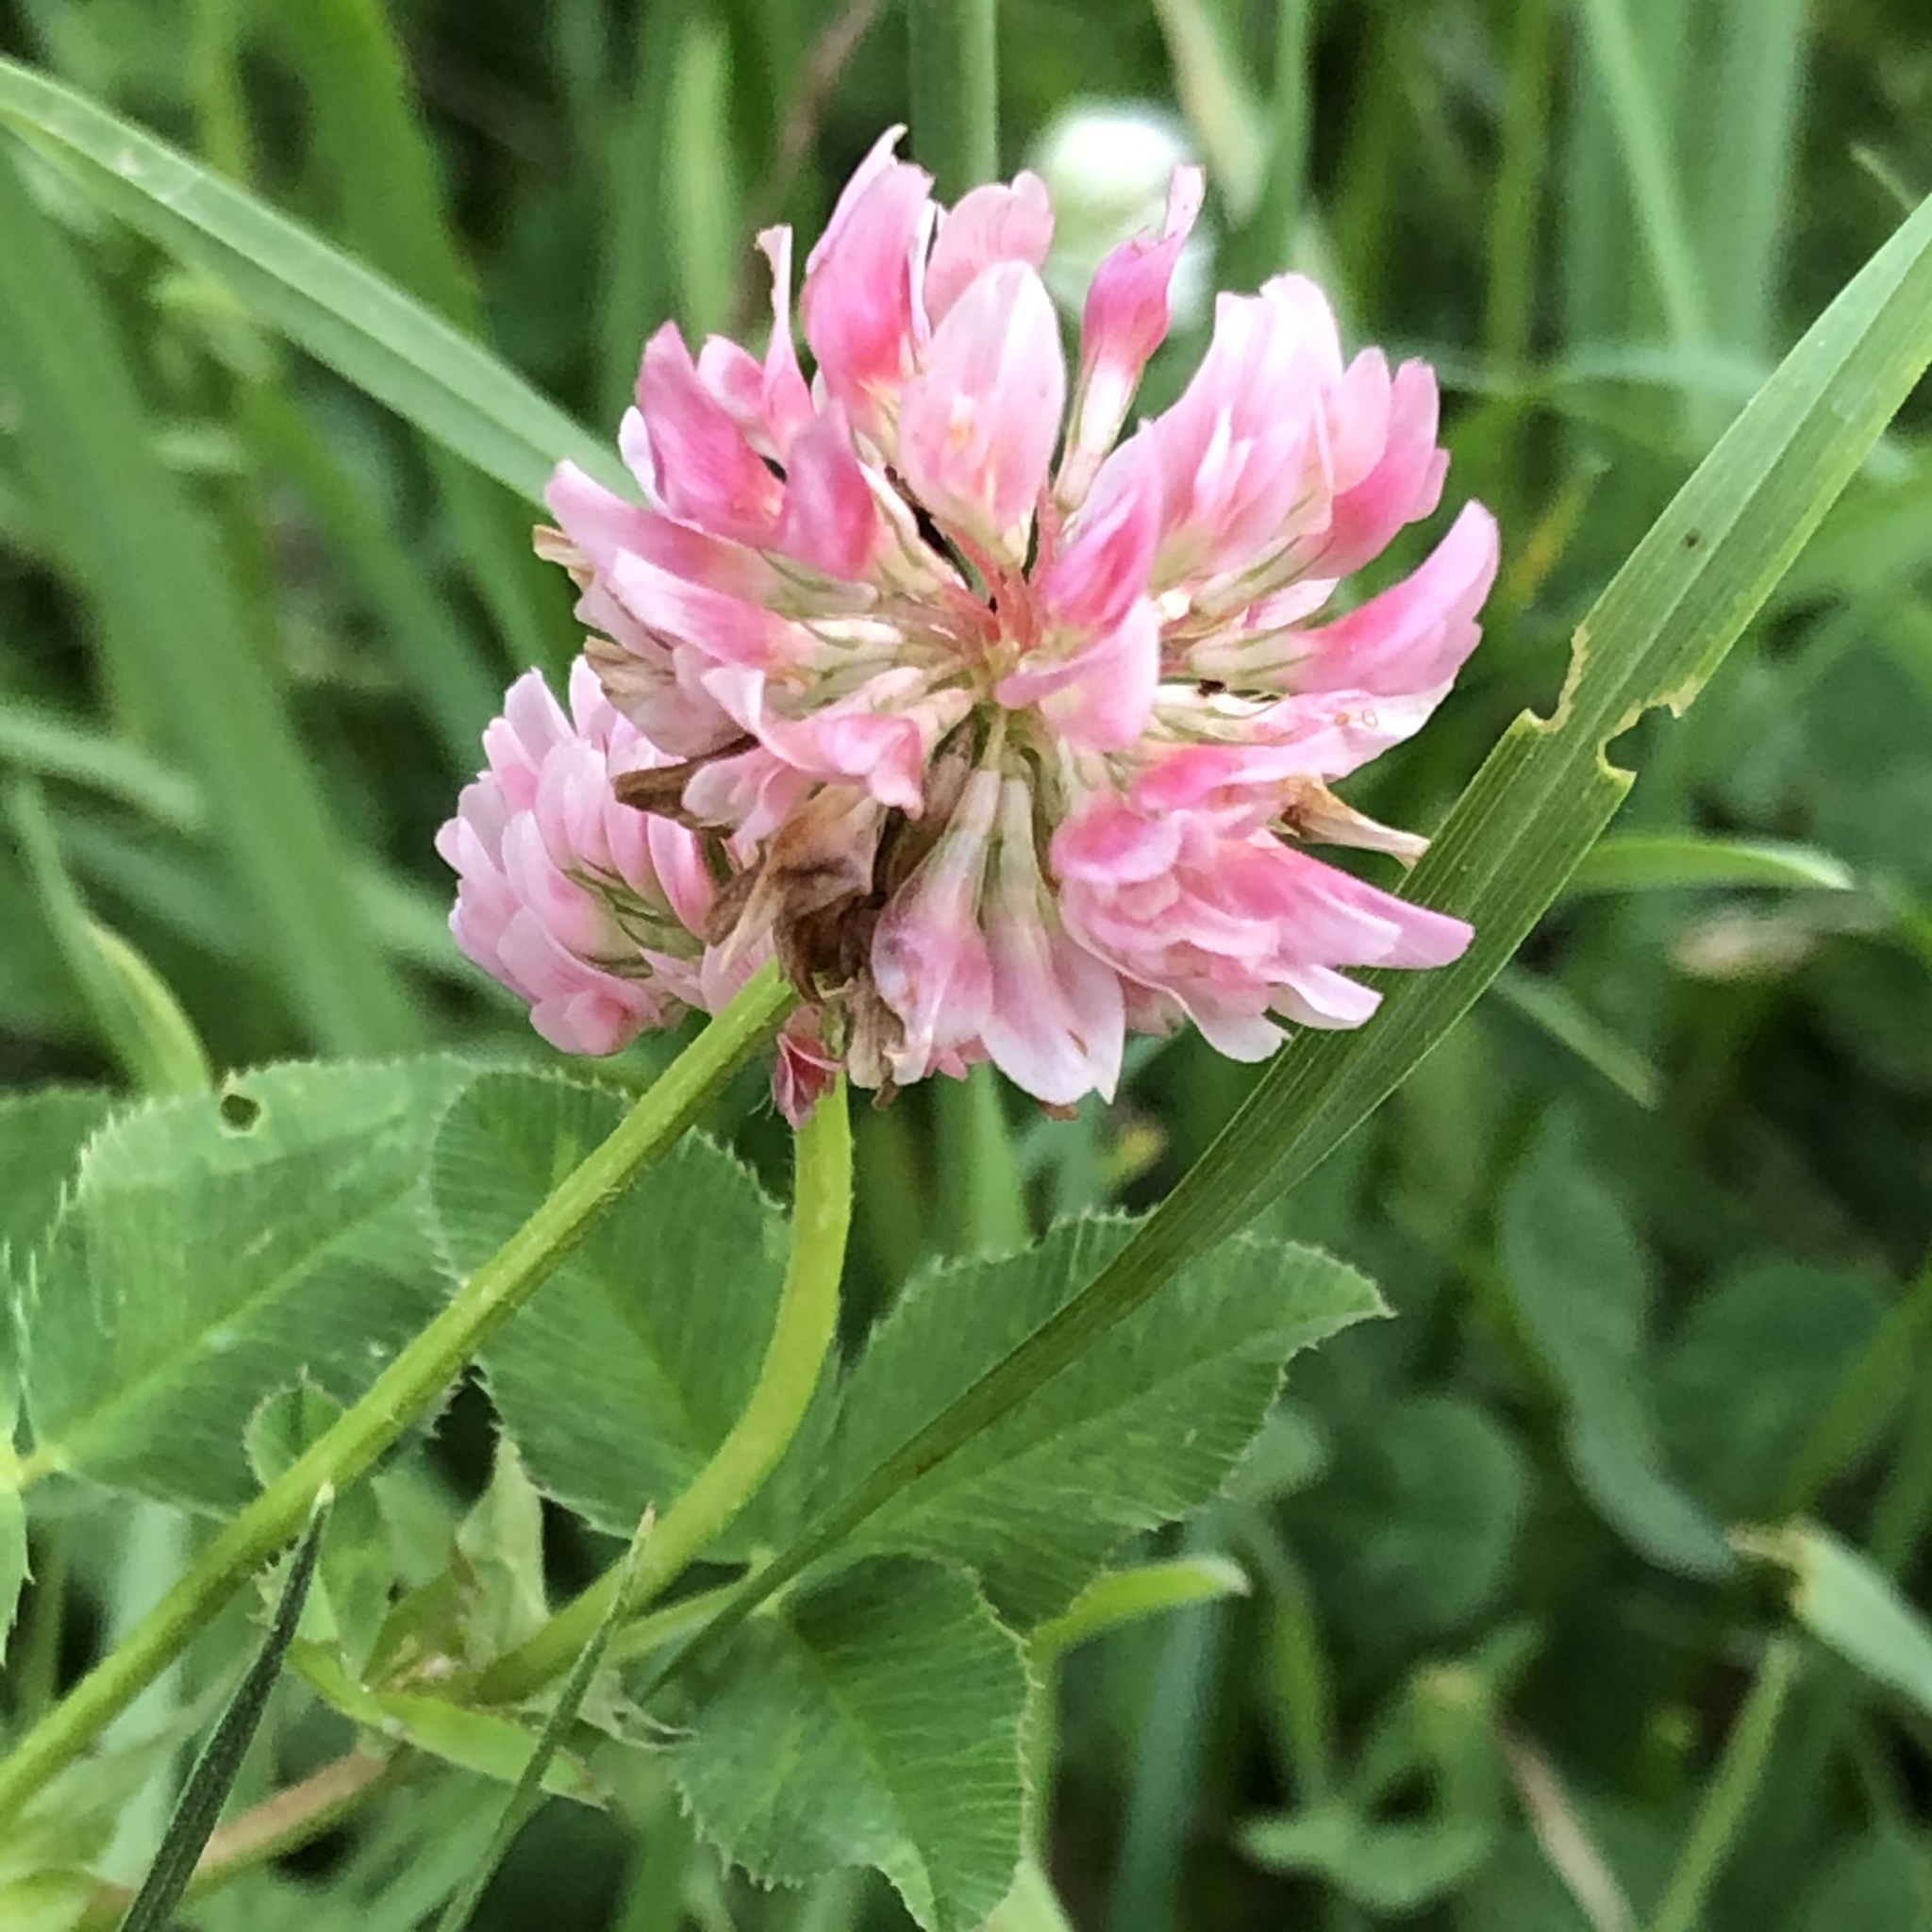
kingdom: Plantae
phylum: Tracheophyta
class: Magnoliopsida
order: Fabales
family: Fabaceae
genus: Trifolium
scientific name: Trifolium hybridum
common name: Alsike clover
